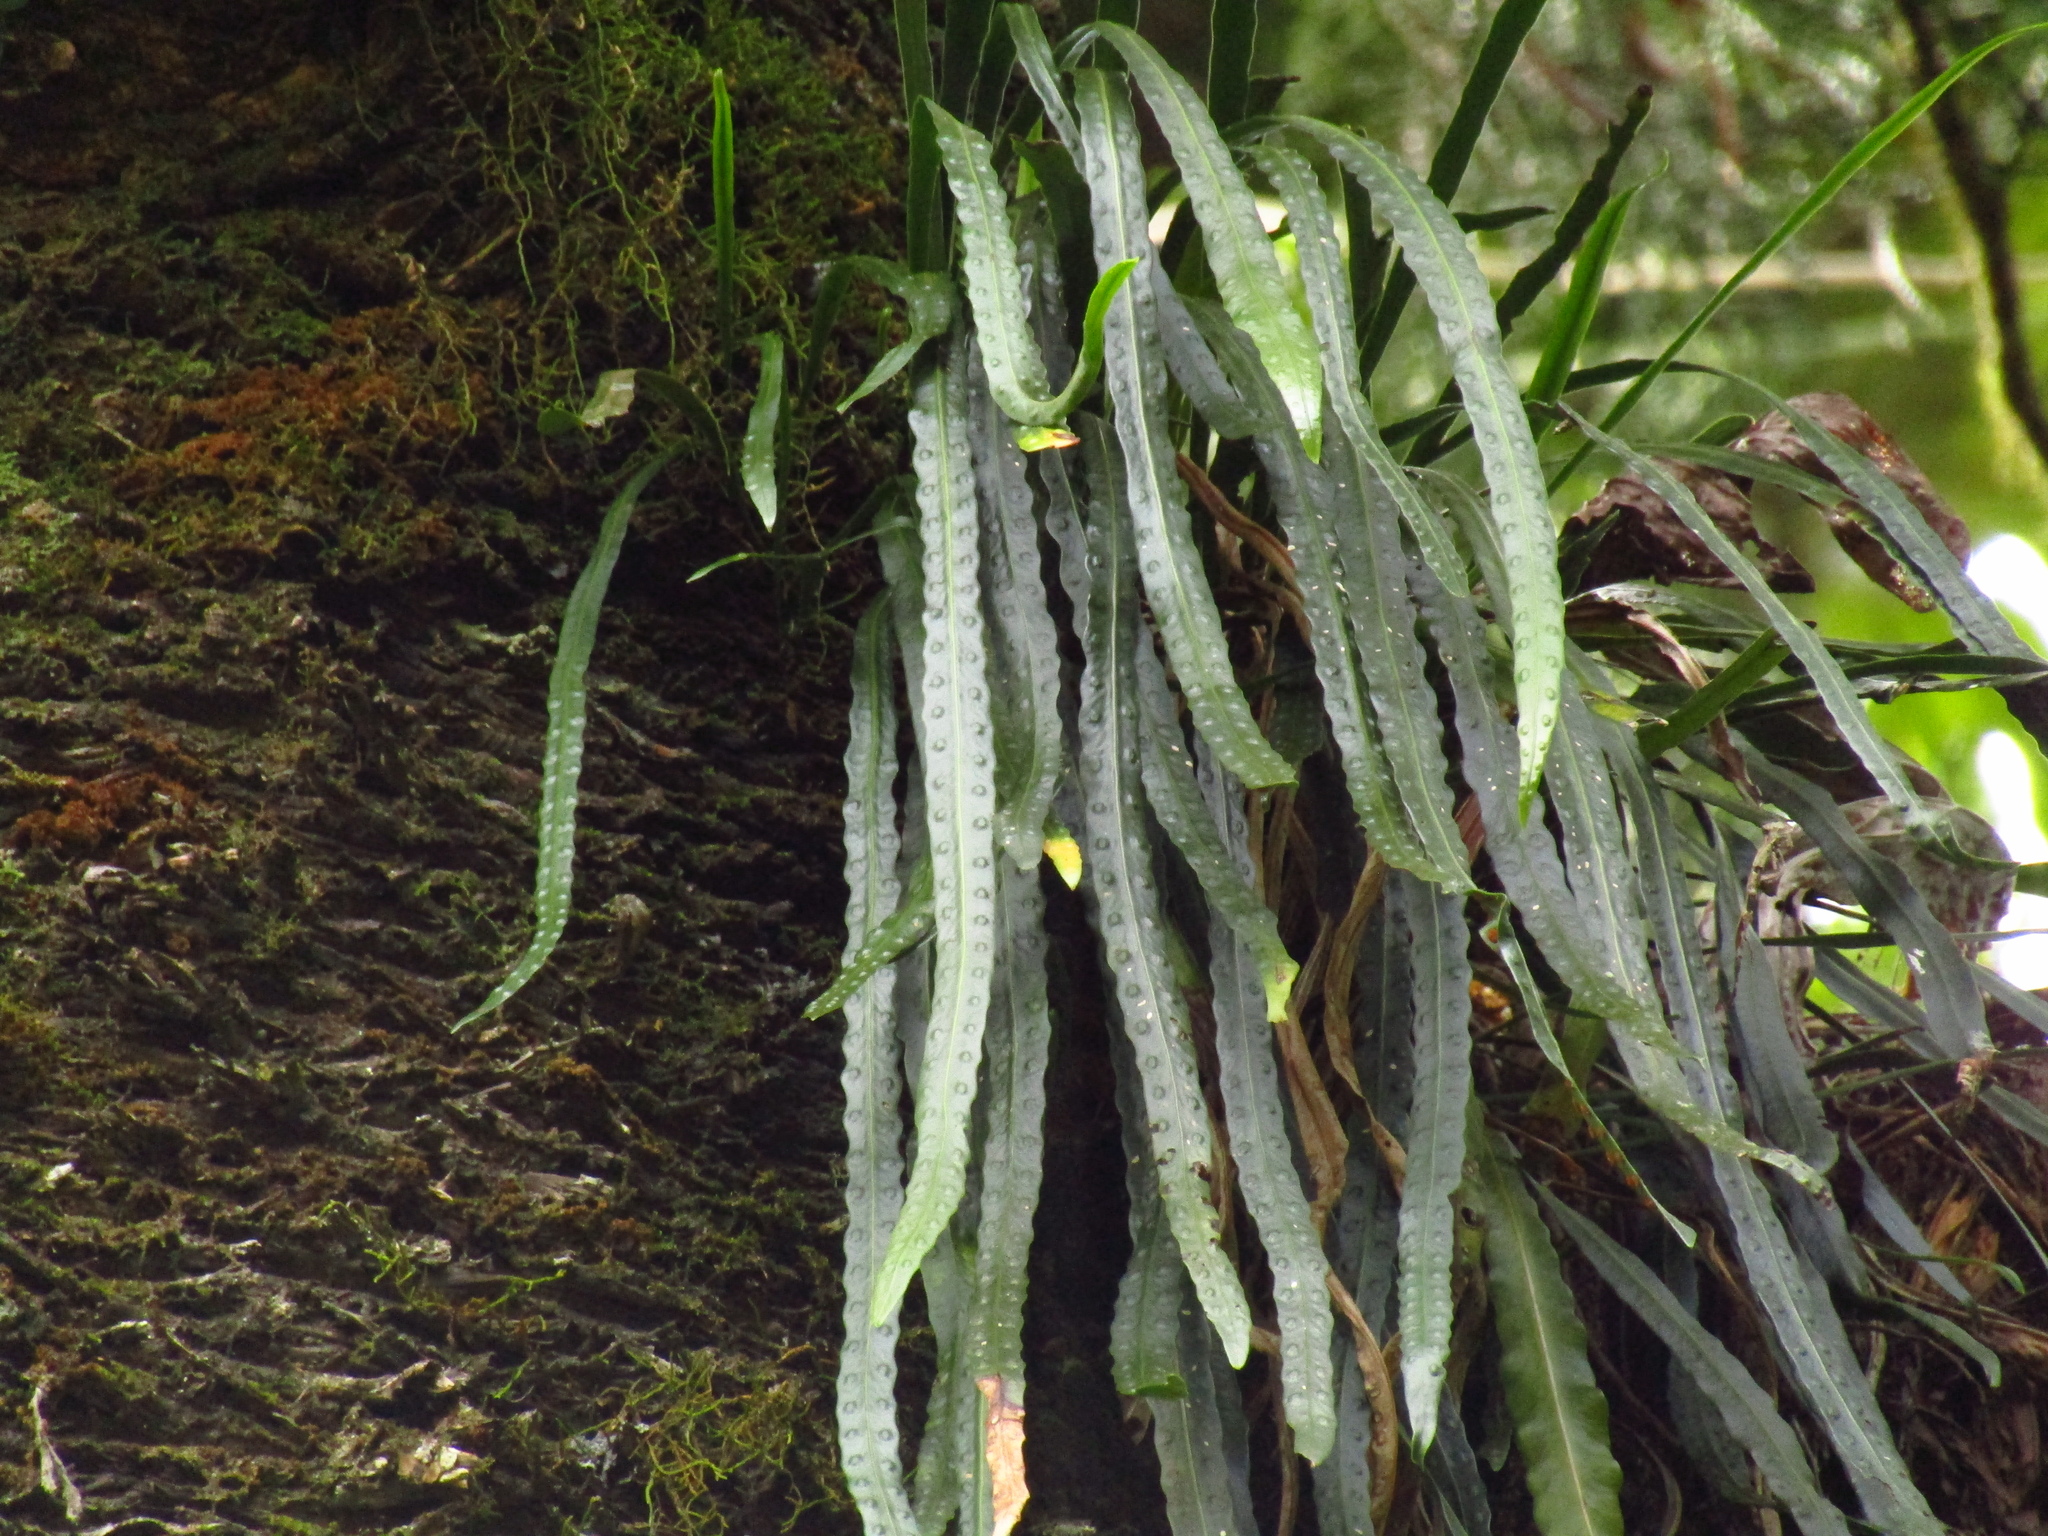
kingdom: Plantae
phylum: Tracheophyta
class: Polypodiopsida
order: Polypodiales
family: Polypodiaceae
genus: Dictymia
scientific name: Dictymia brownii
